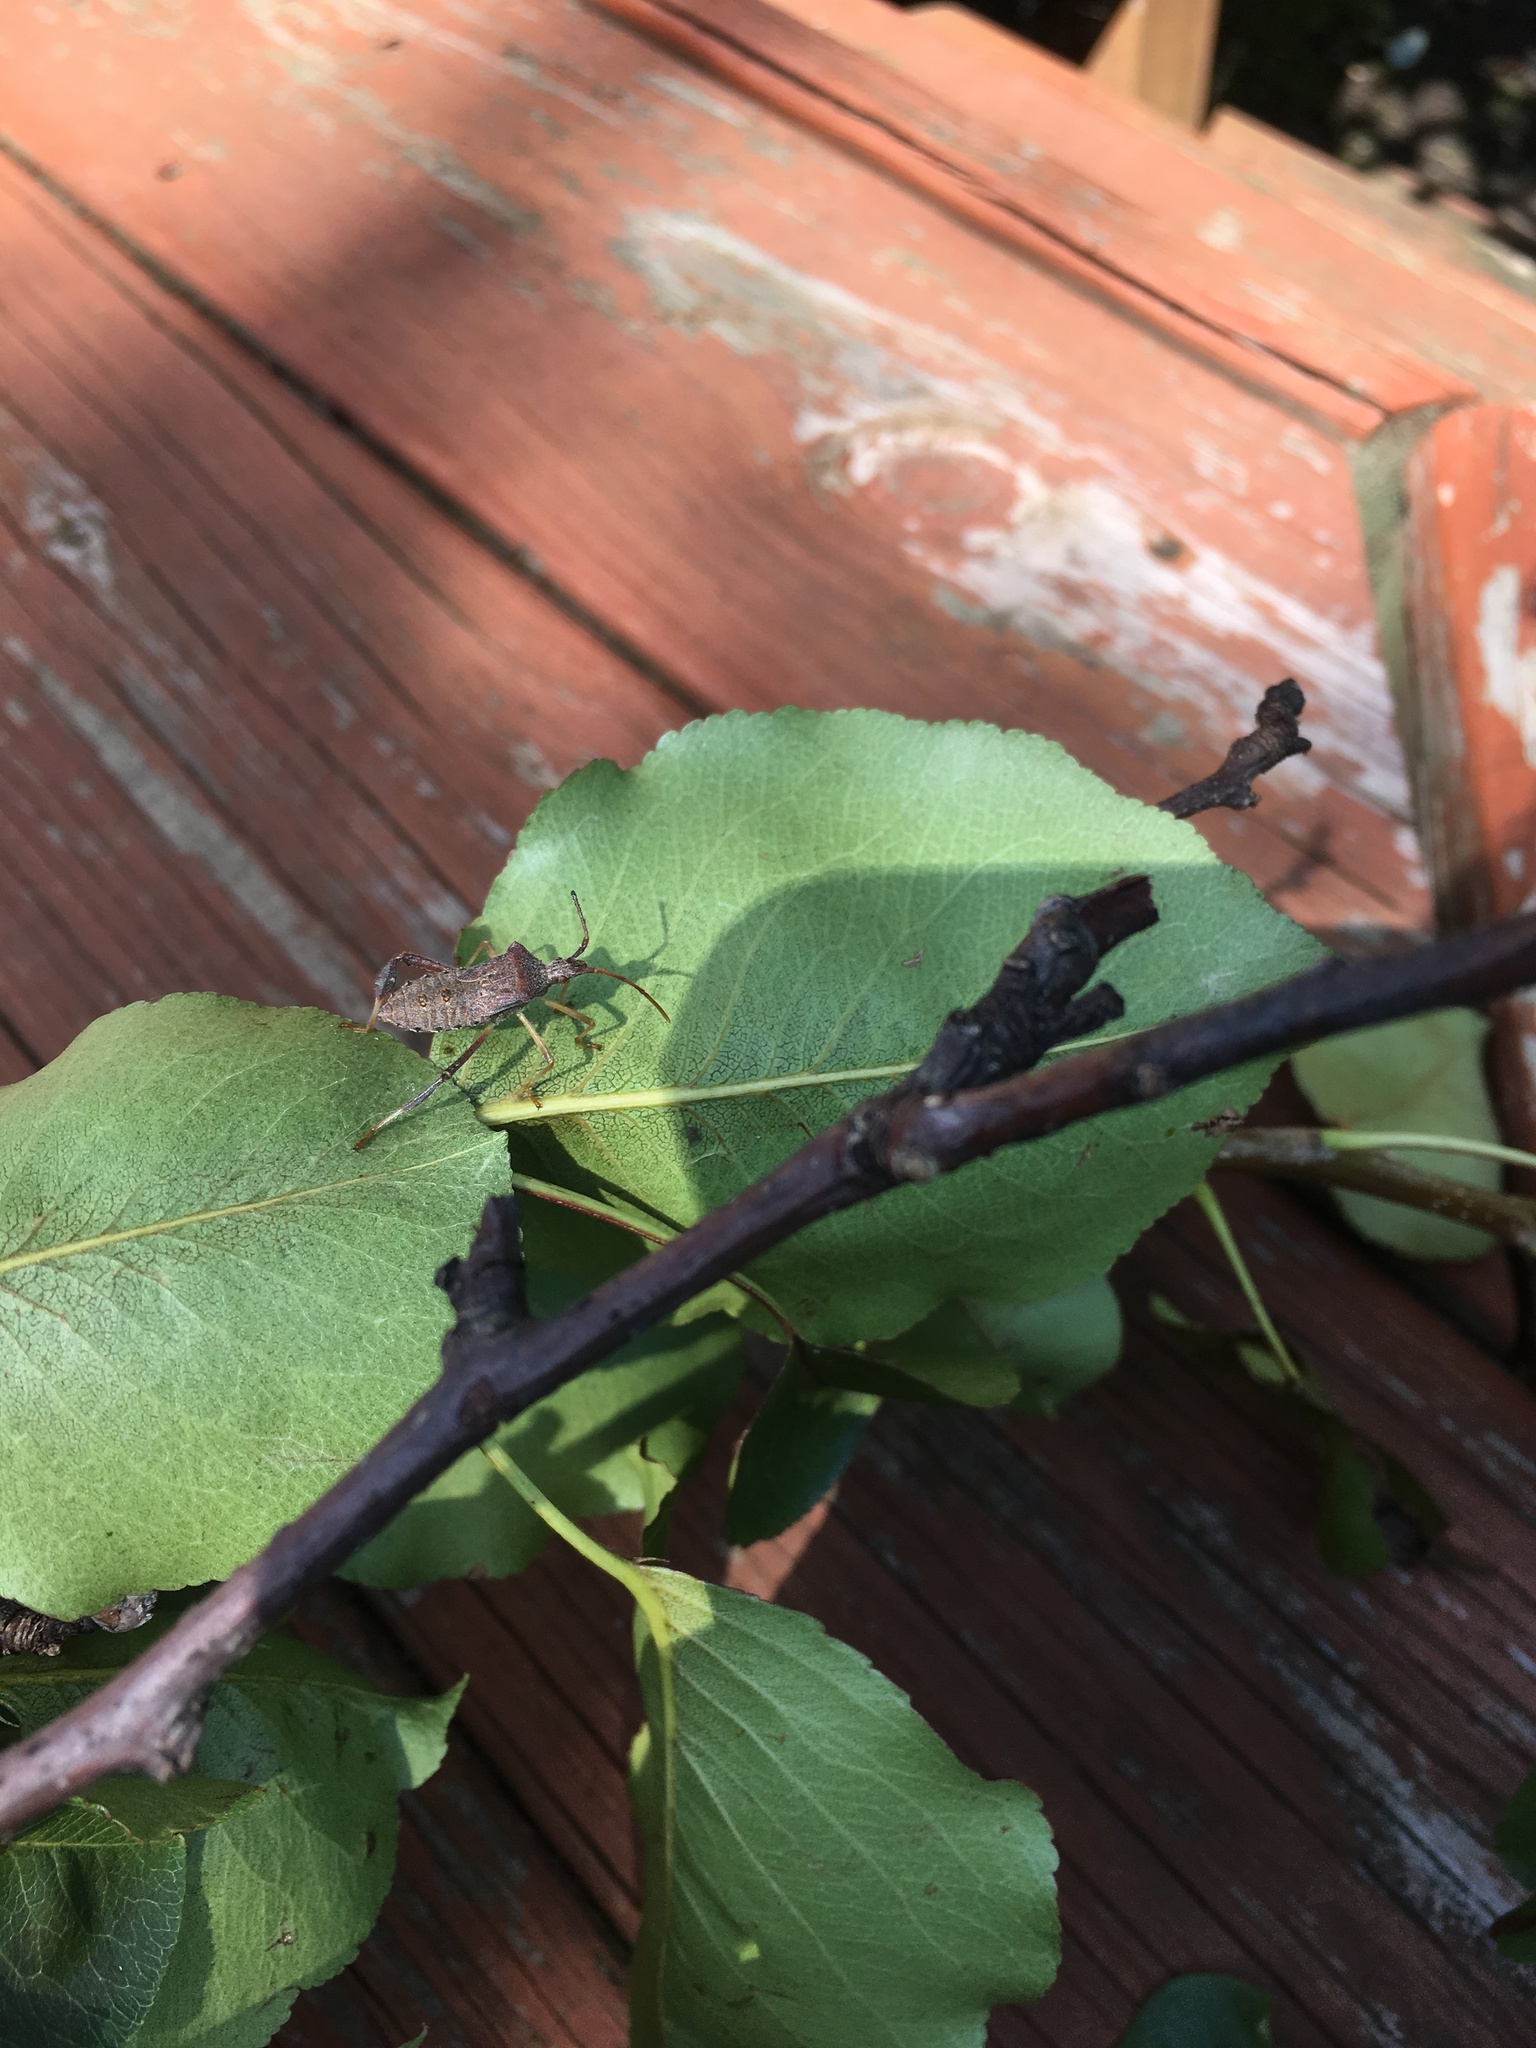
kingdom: Animalia
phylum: Arthropoda
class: Insecta
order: Hemiptera
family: Coreidae
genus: Leptoglossus
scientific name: Leptoglossus fulvicornis
